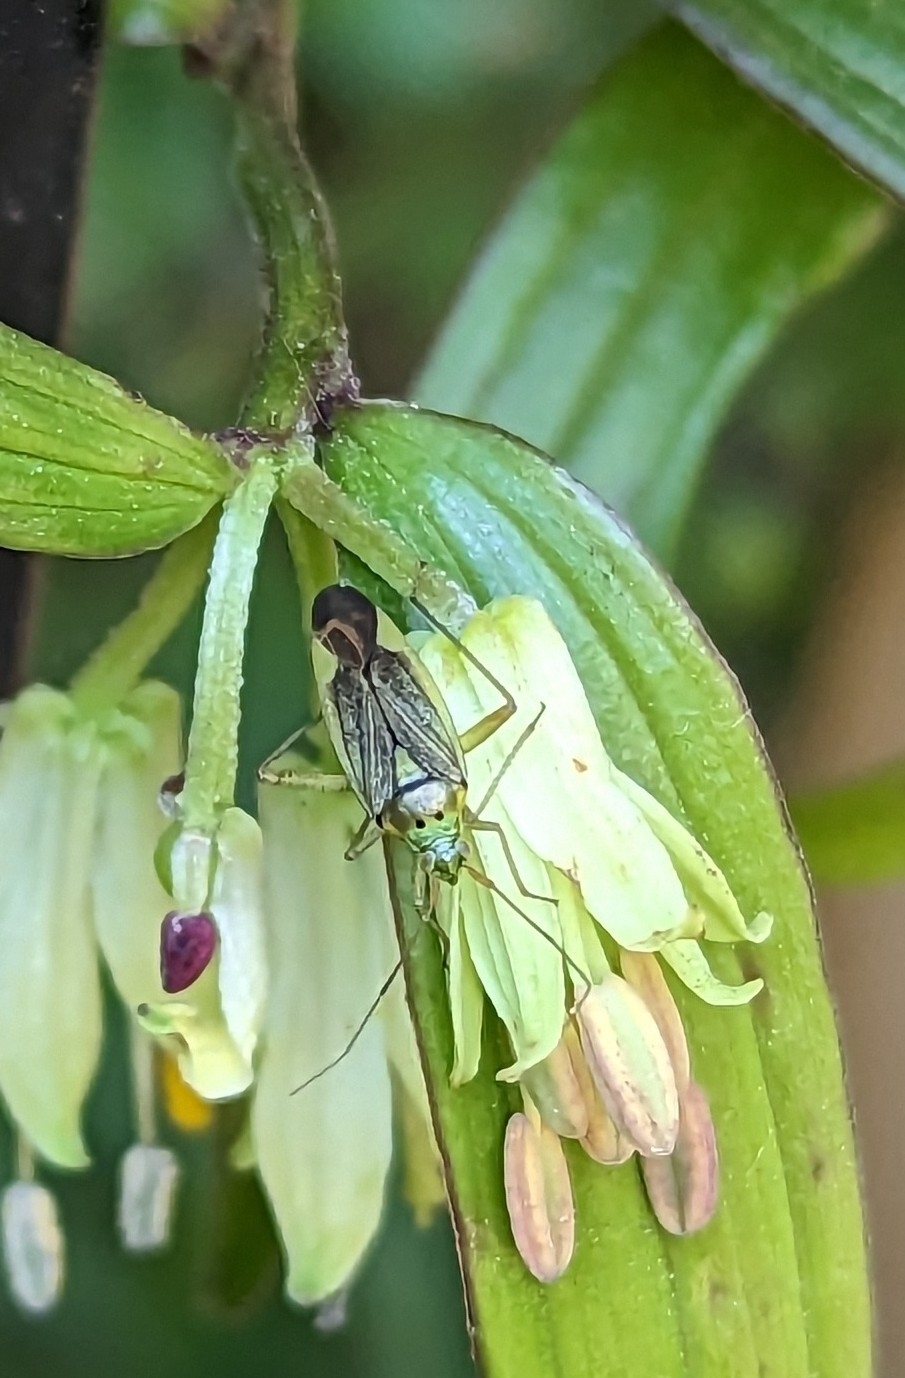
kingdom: Animalia
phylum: Arthropoda
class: Insecta
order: Hemiptera
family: Miridae
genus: Closterotomus
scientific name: Closterotomus trivialis
